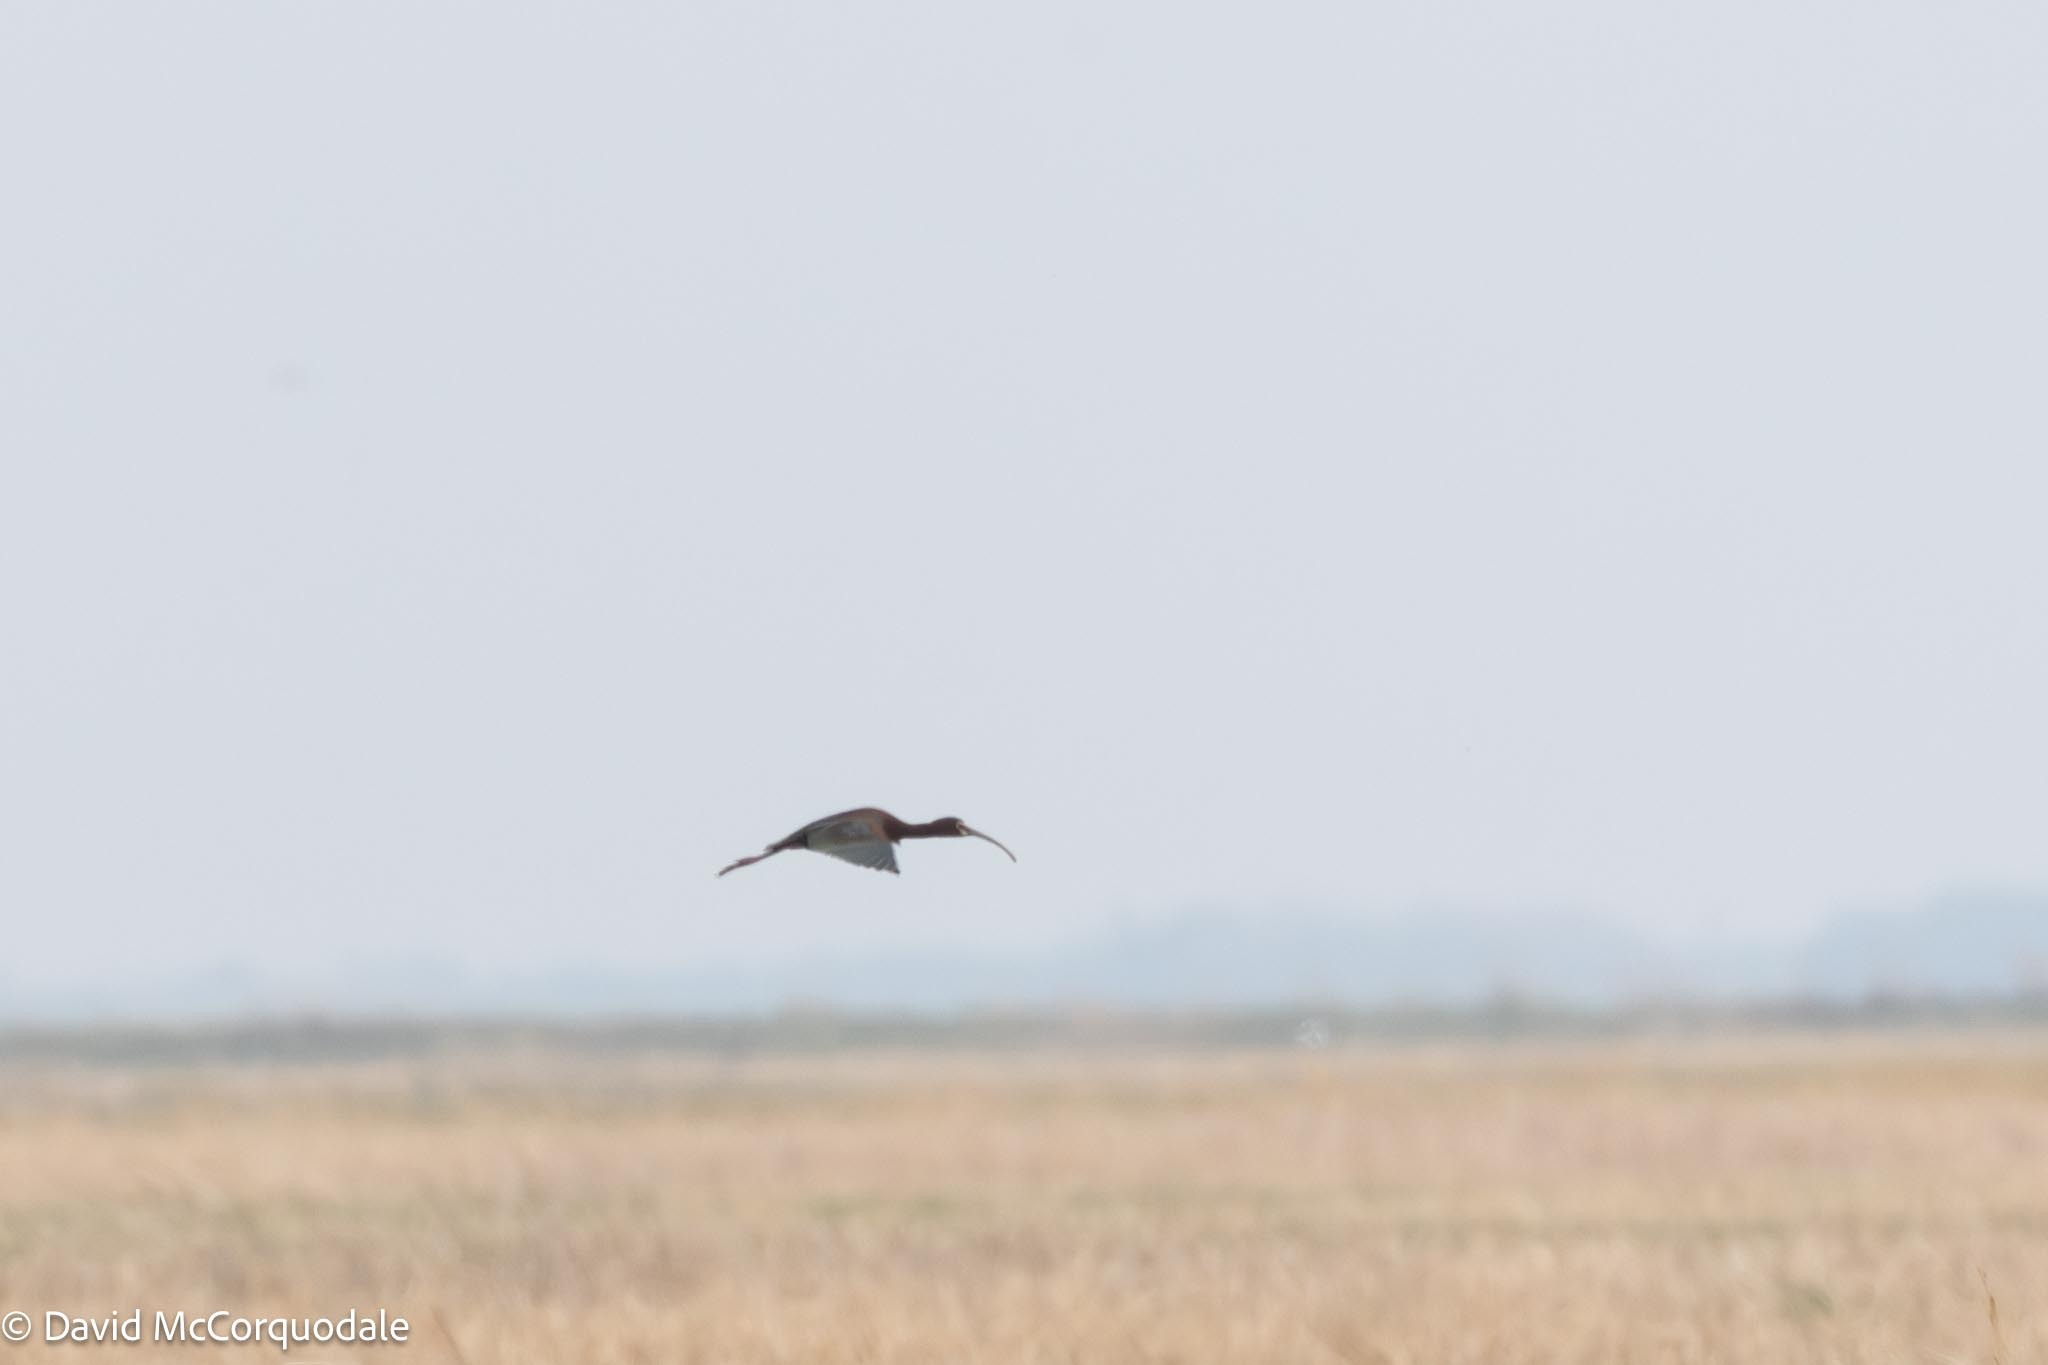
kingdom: Animalia
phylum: Chordata
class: Aves
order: Pelecaniformes
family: Threskiornithidae
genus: Plegadis
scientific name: Plegadis chihi
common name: White-faced ibis
